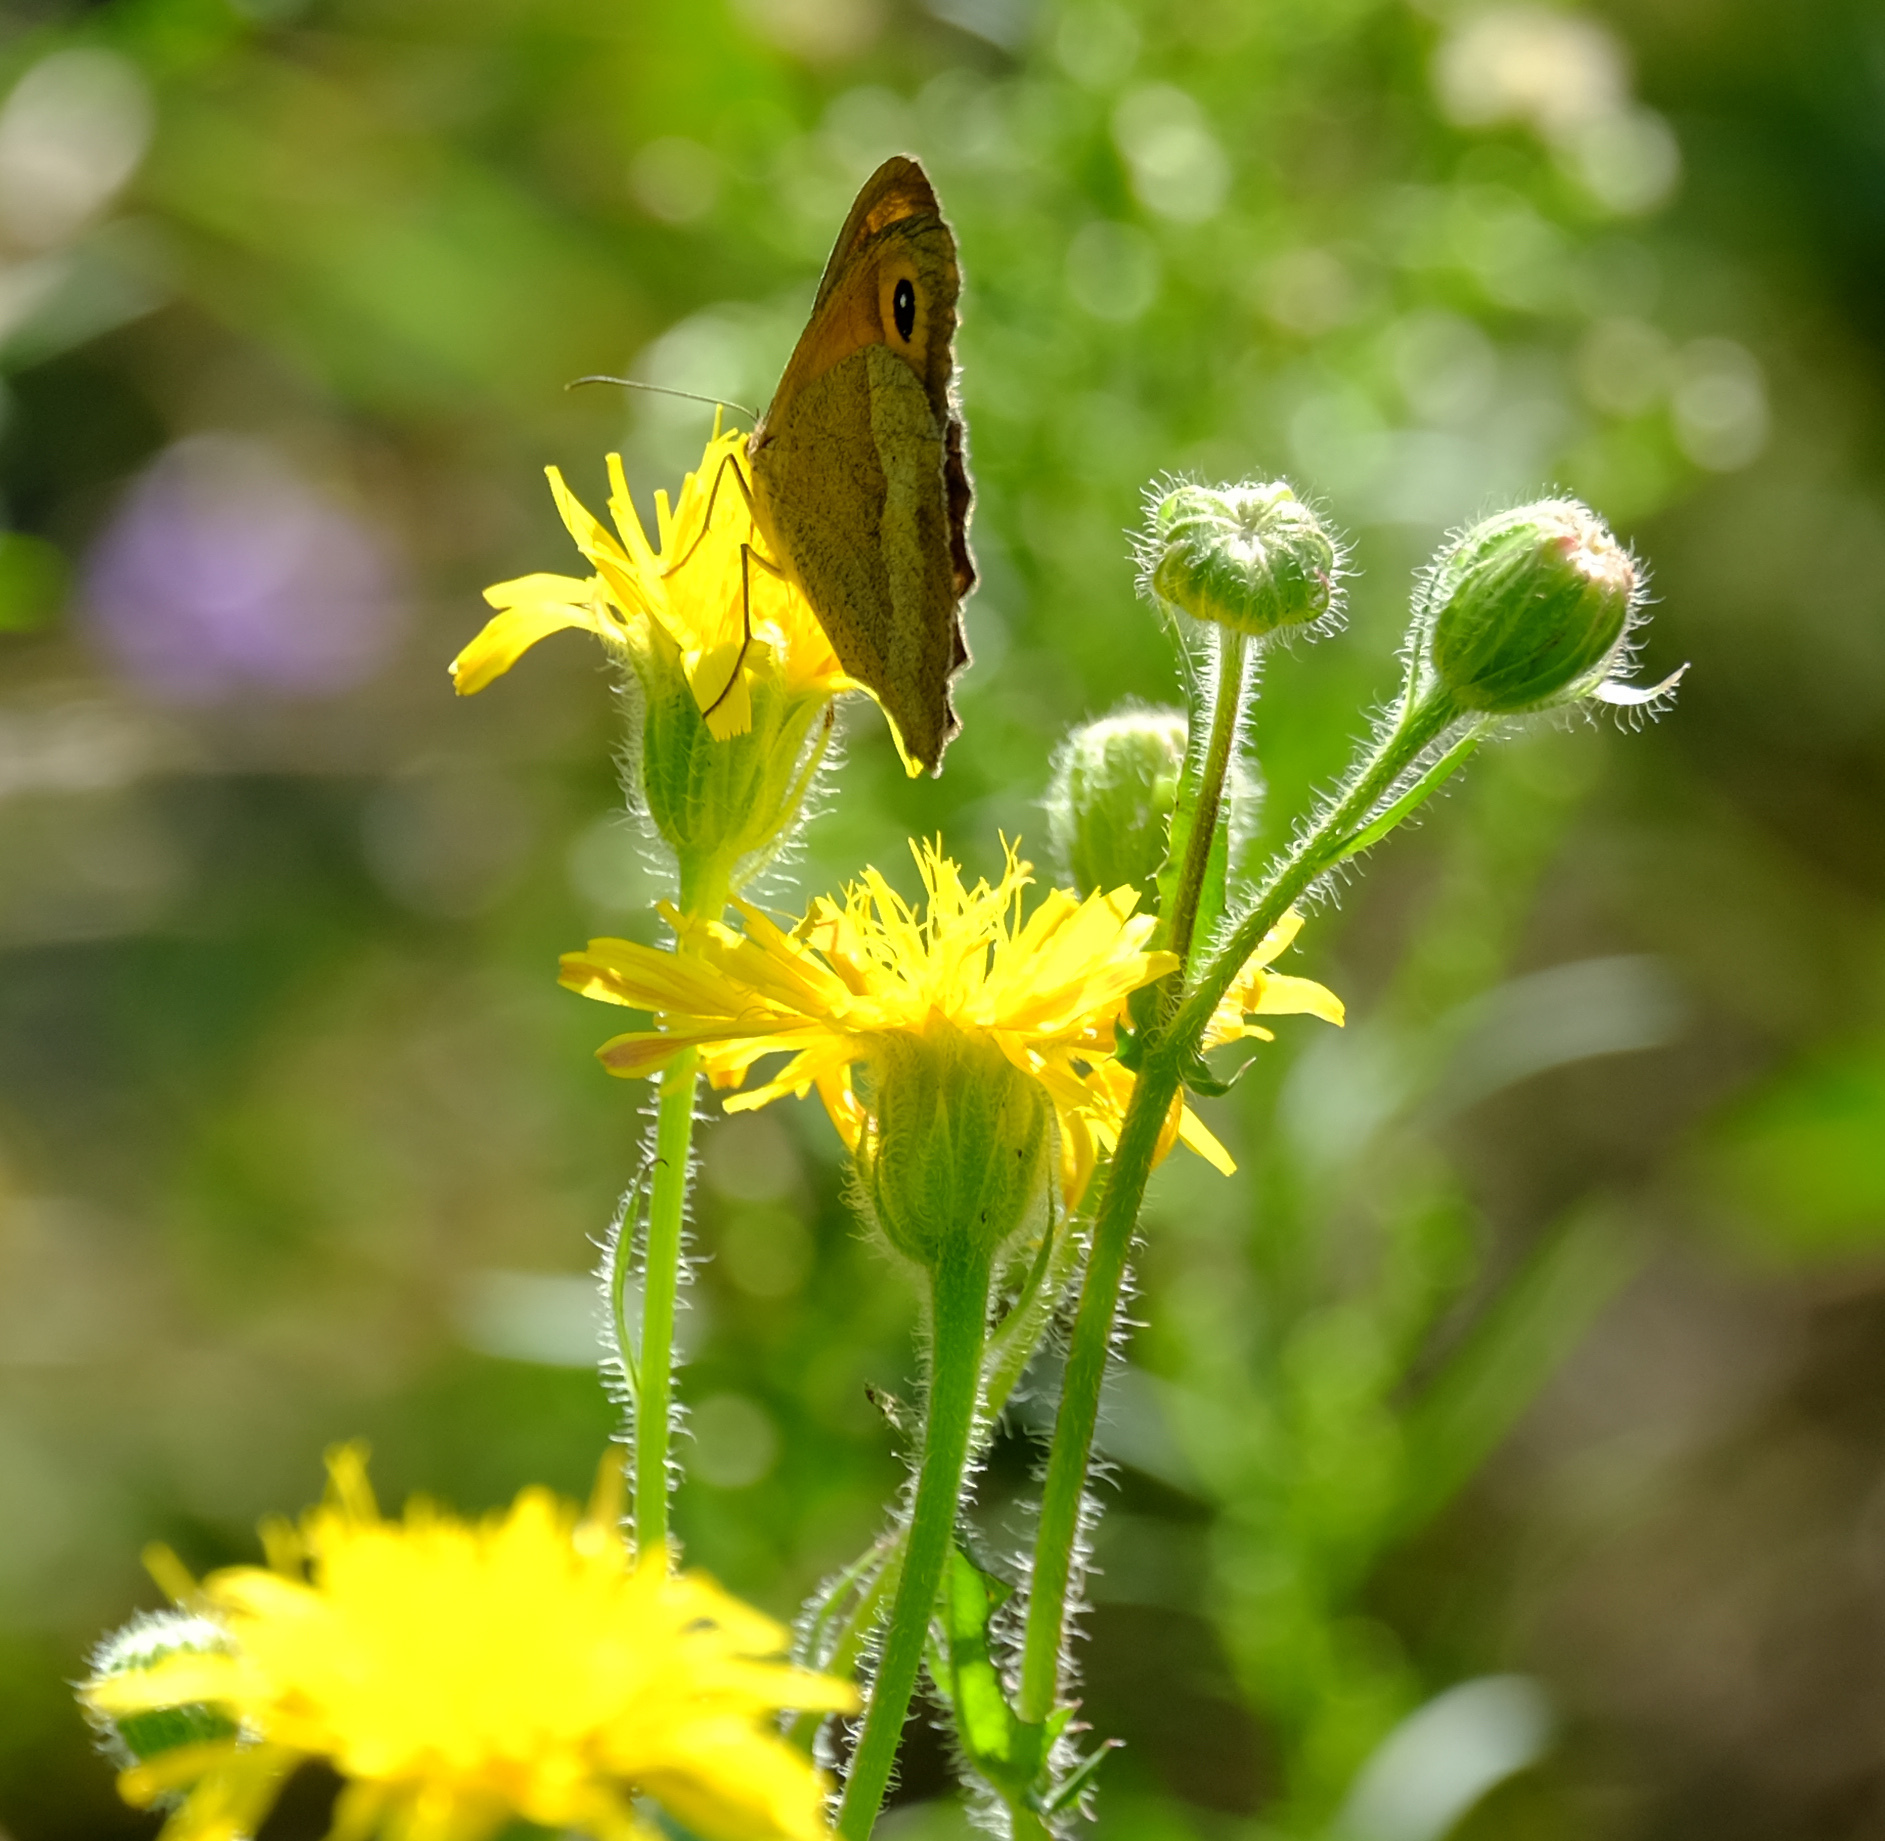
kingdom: Animalia
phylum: Arthropoda
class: Insecta
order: Lepidoptera
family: Nymphalidae
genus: Maniola
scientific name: Maniola jurtina
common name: Meadow brown
